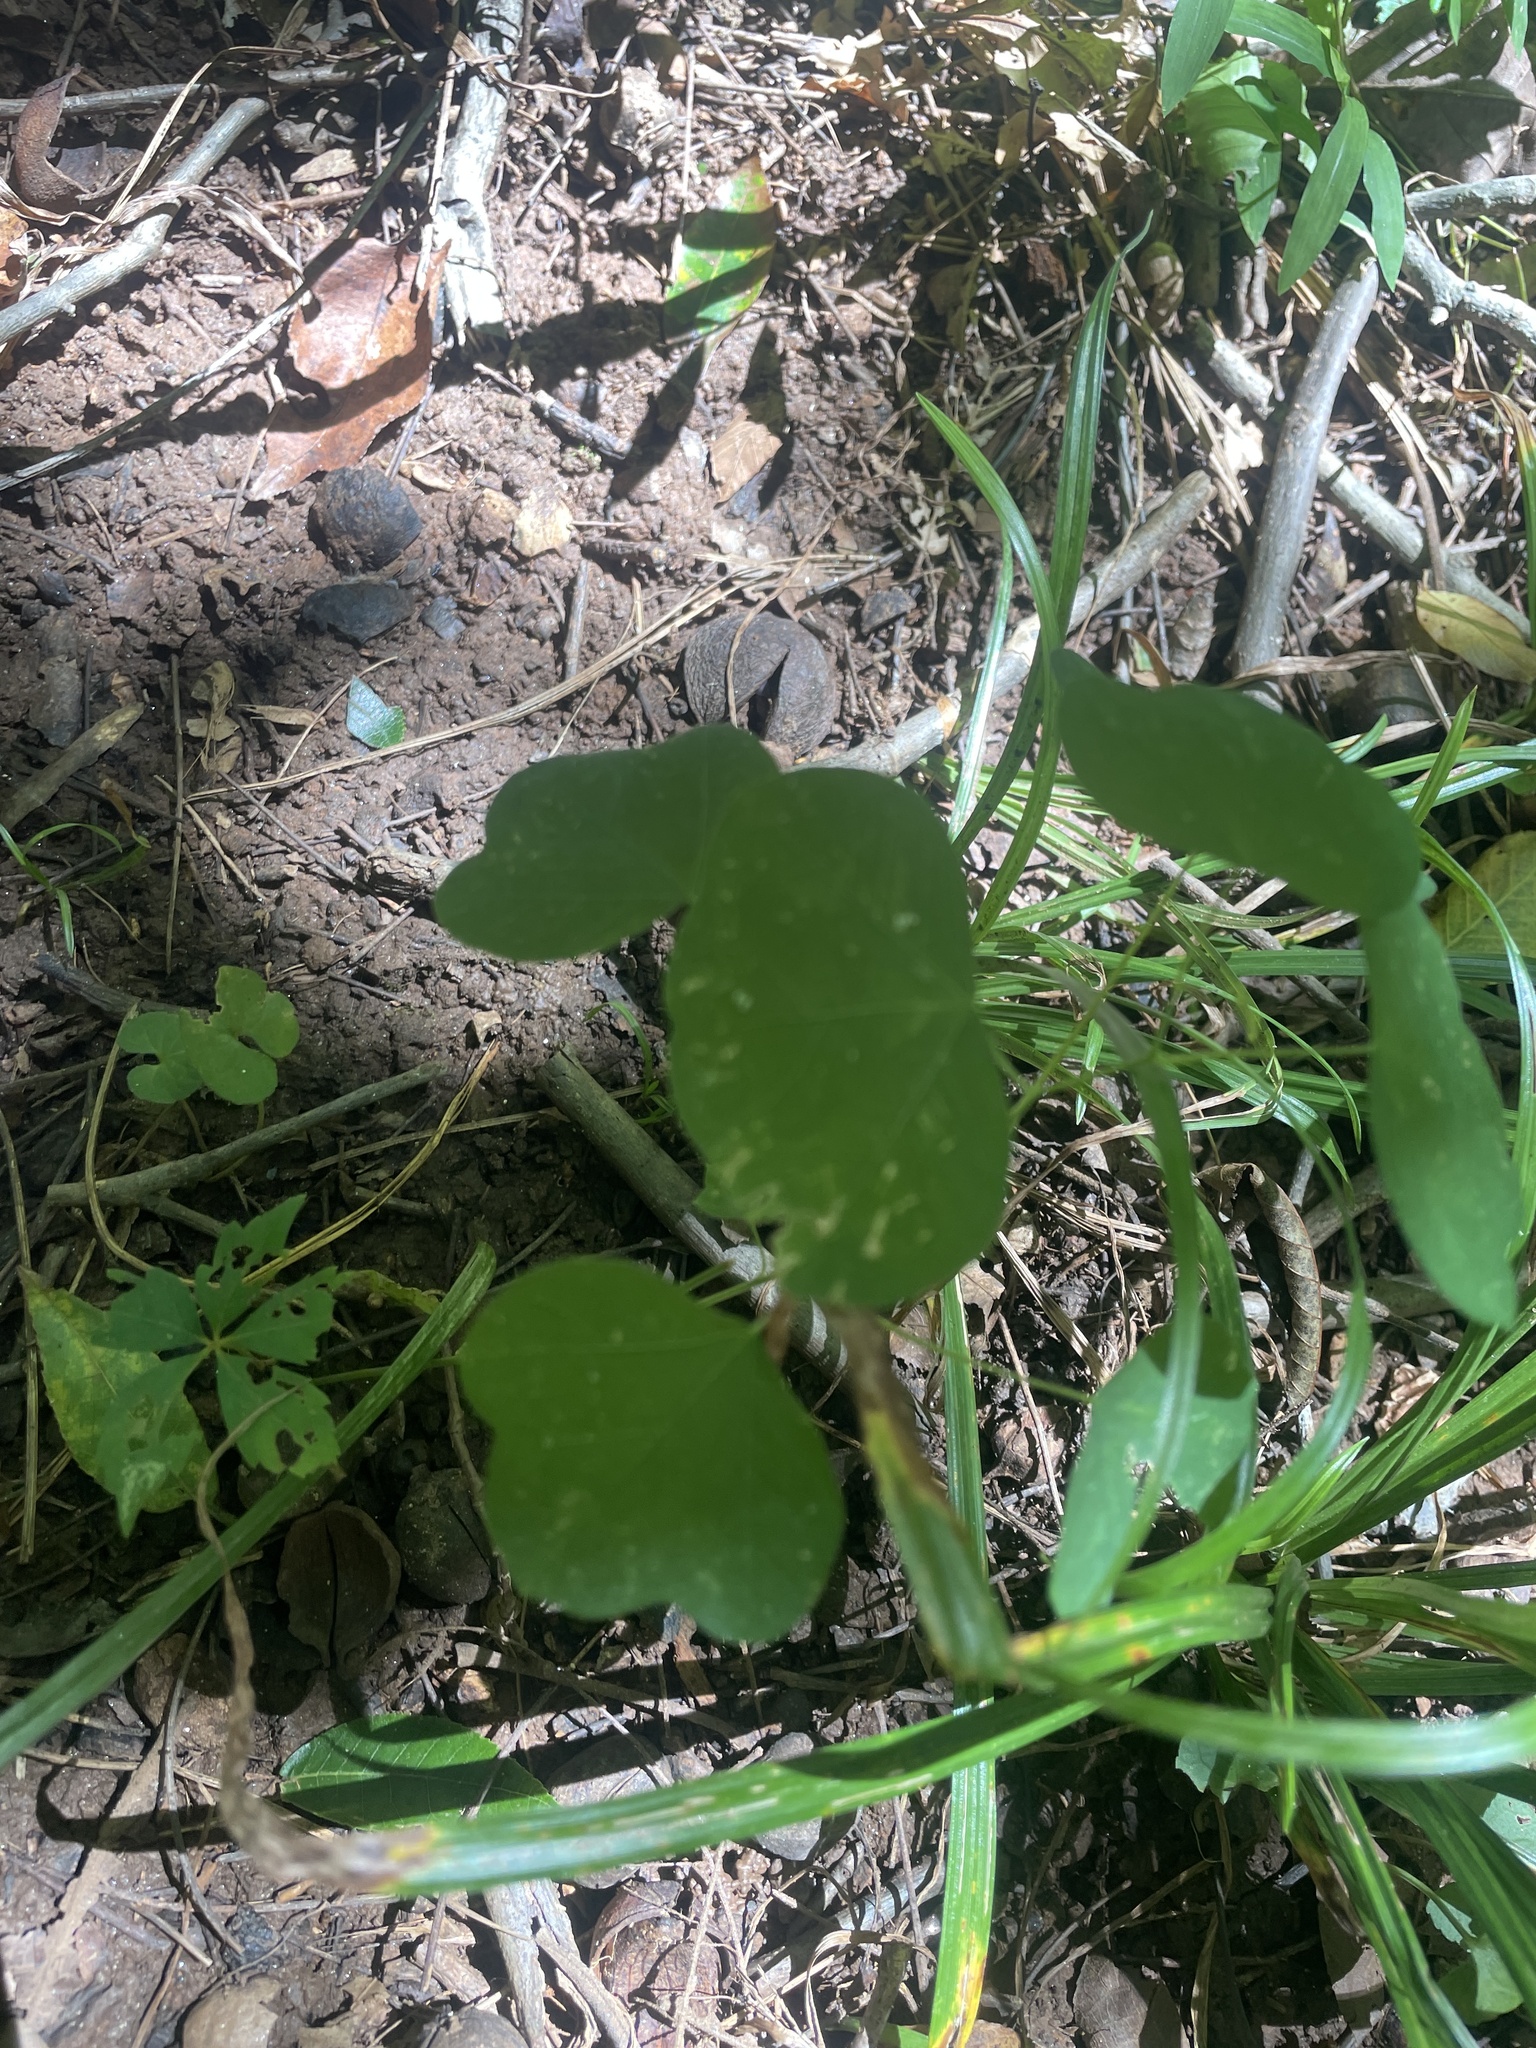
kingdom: Plantae
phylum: Tracheophyta
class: Magnoliopsida
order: Malpighiales
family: Passifloraceae
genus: Passiflora
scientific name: Passiflora lutea
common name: Yellow passionflower
